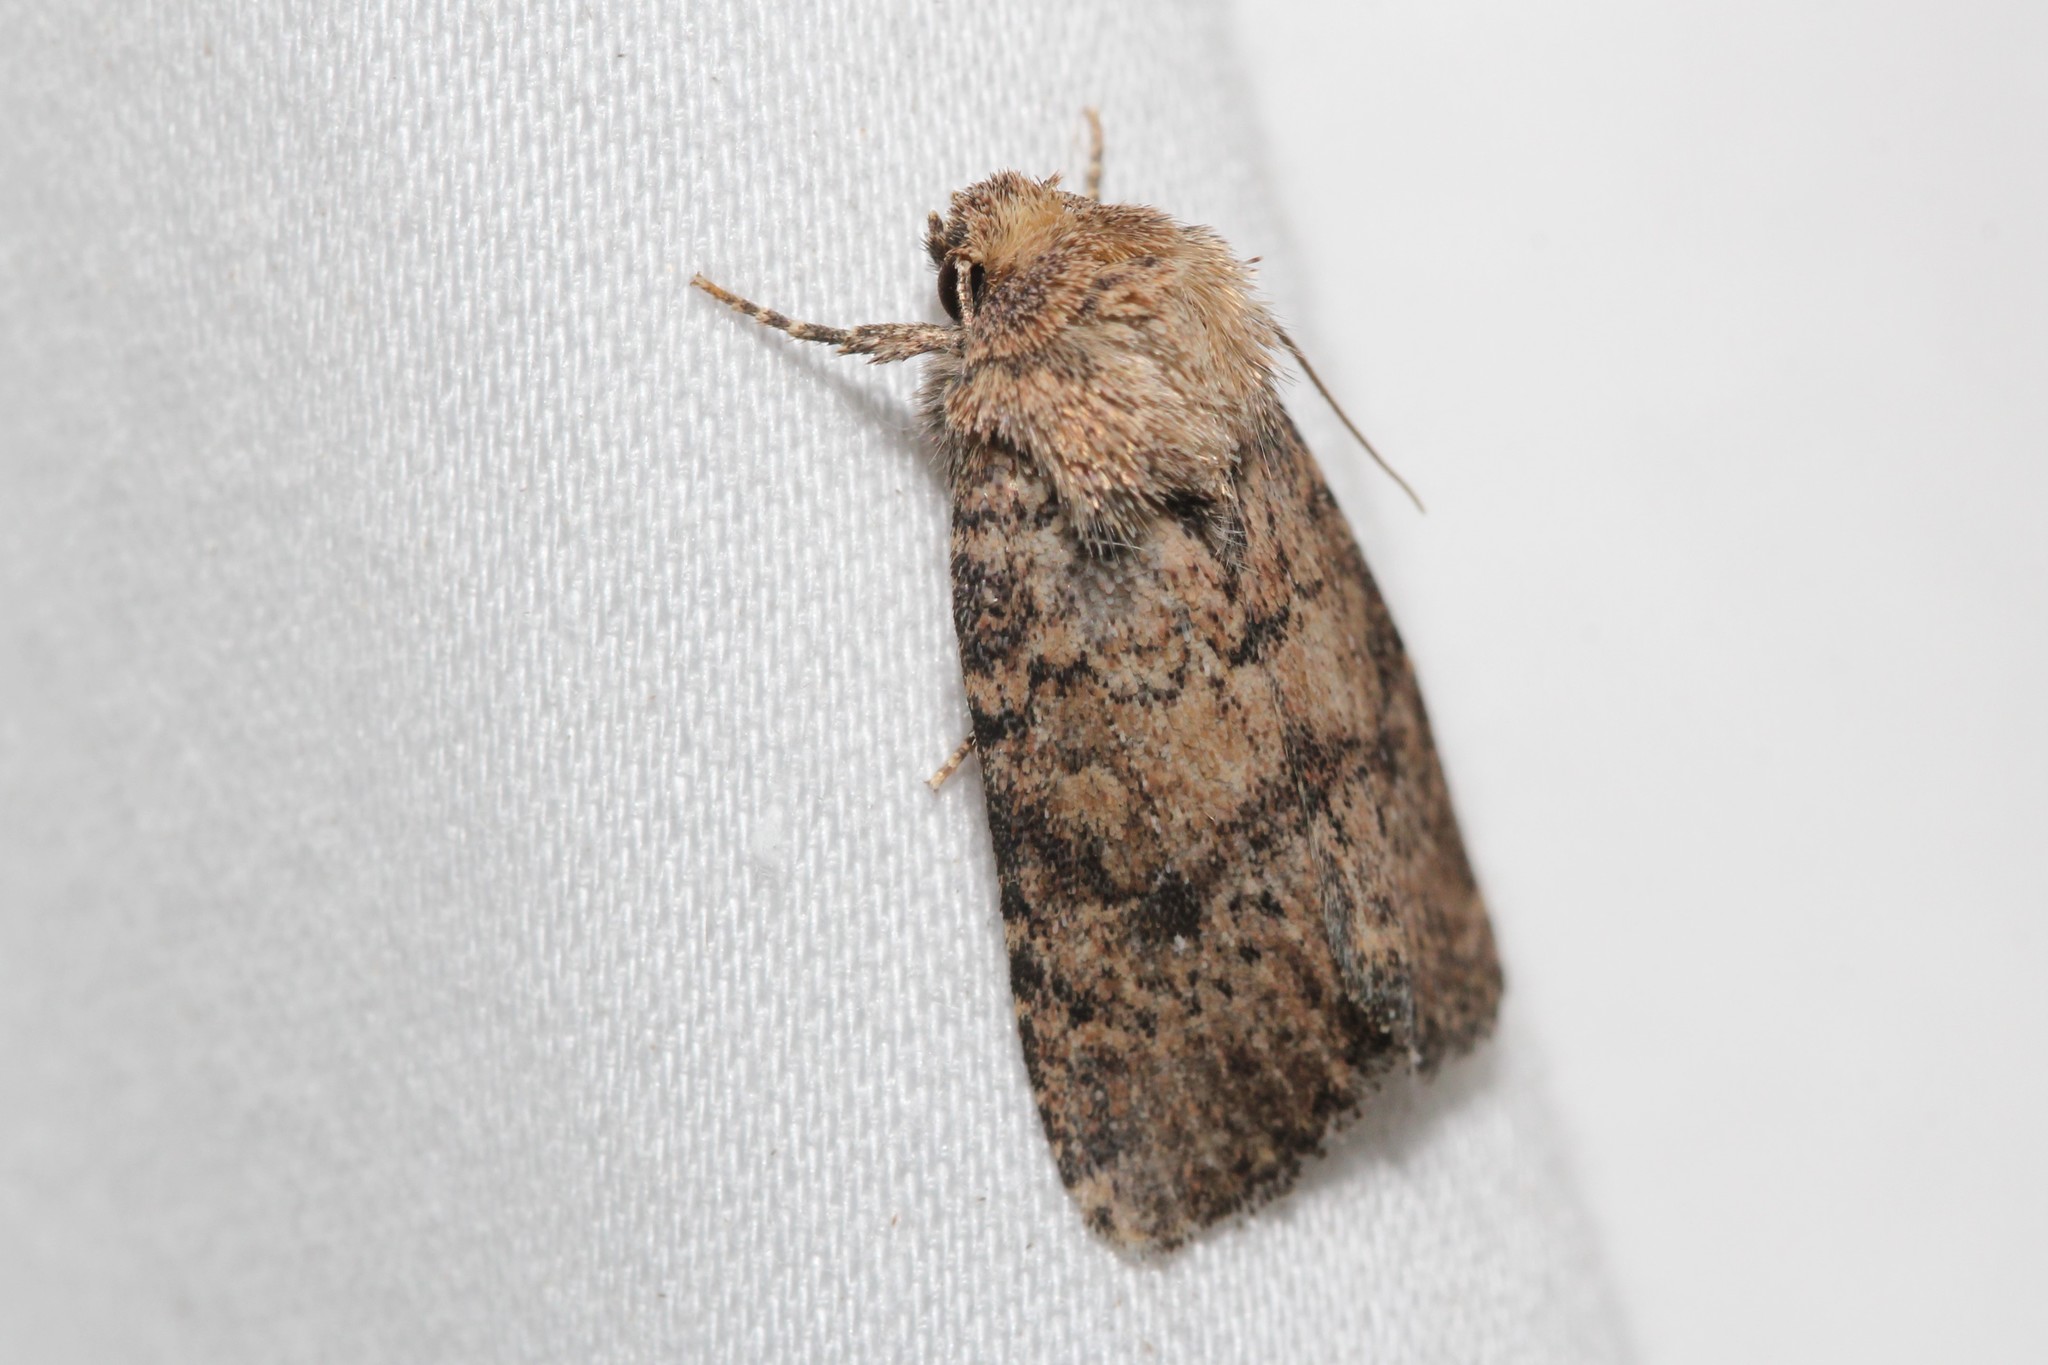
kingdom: Animalia
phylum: Arthropoda
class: Insecta
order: Lepidoptera
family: Noctuidae
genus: Homorthodes
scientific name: Homorthodes furfurata
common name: Northern scurfy quaker
